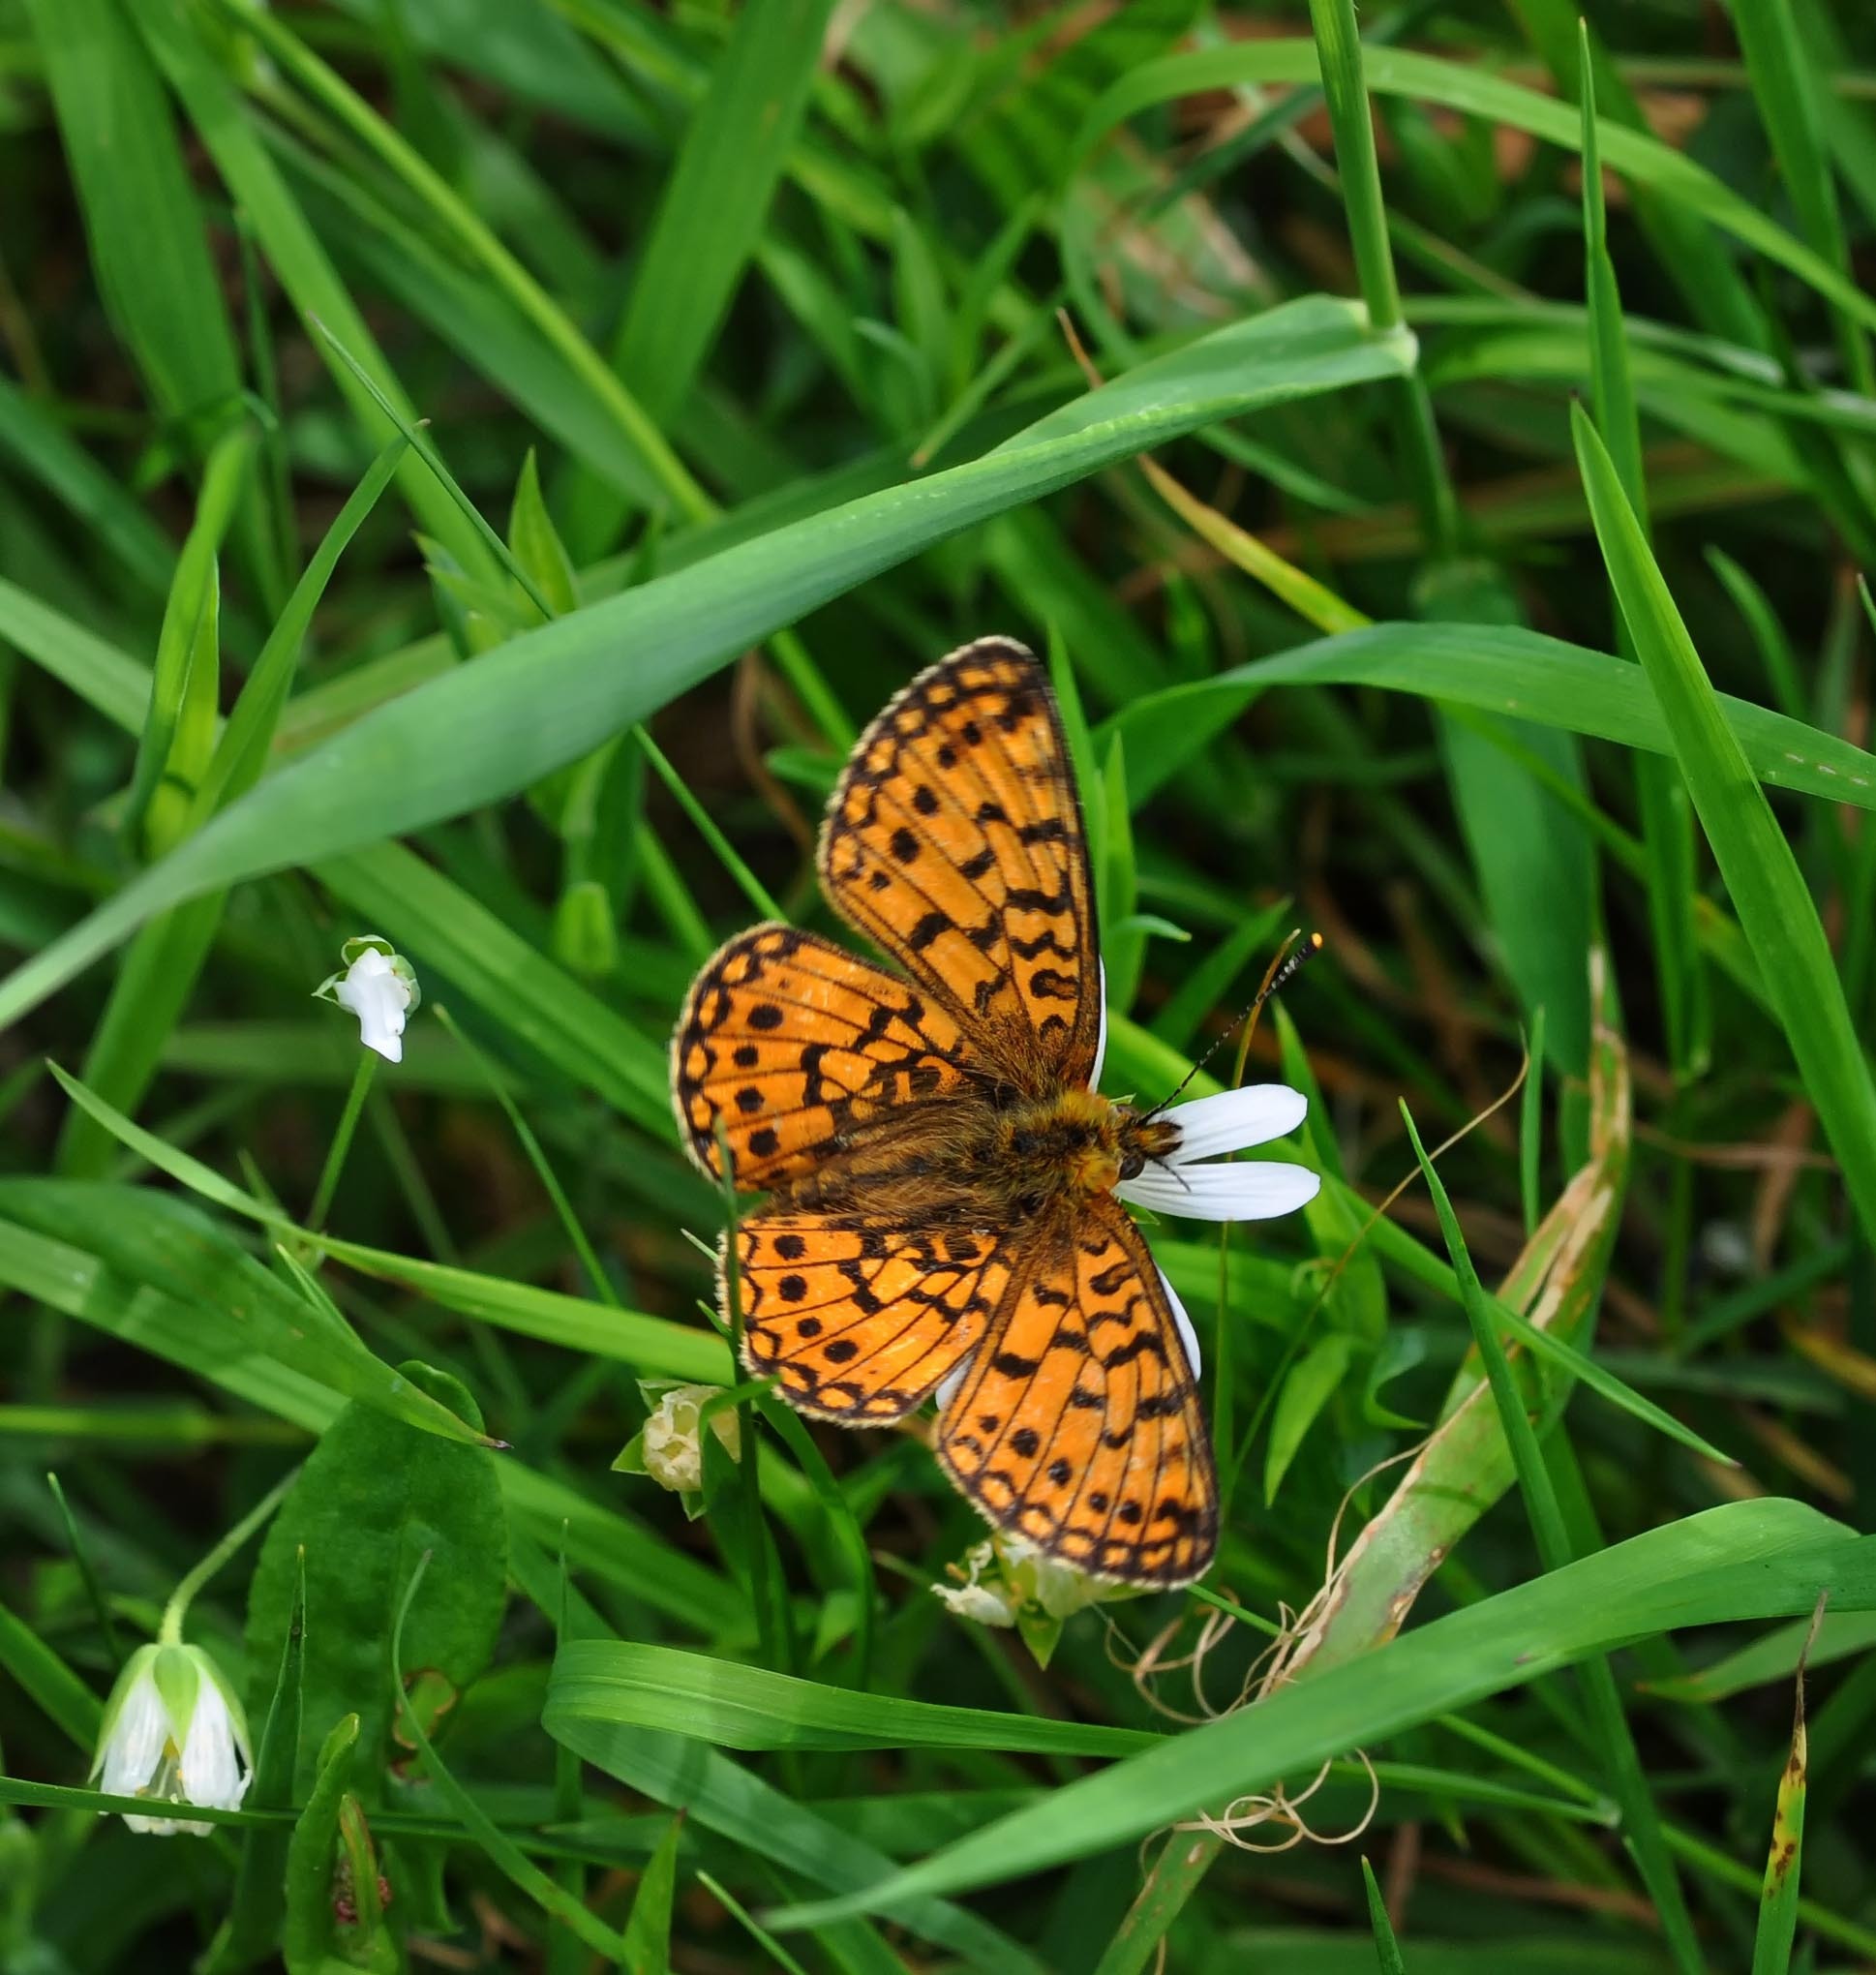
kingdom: Animalia
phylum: Arthropoda
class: Insecta
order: Lepidoptera
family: Nymphalidae
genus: Boloria
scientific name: Boloria selene
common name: Small pearl-bordered fritillary
